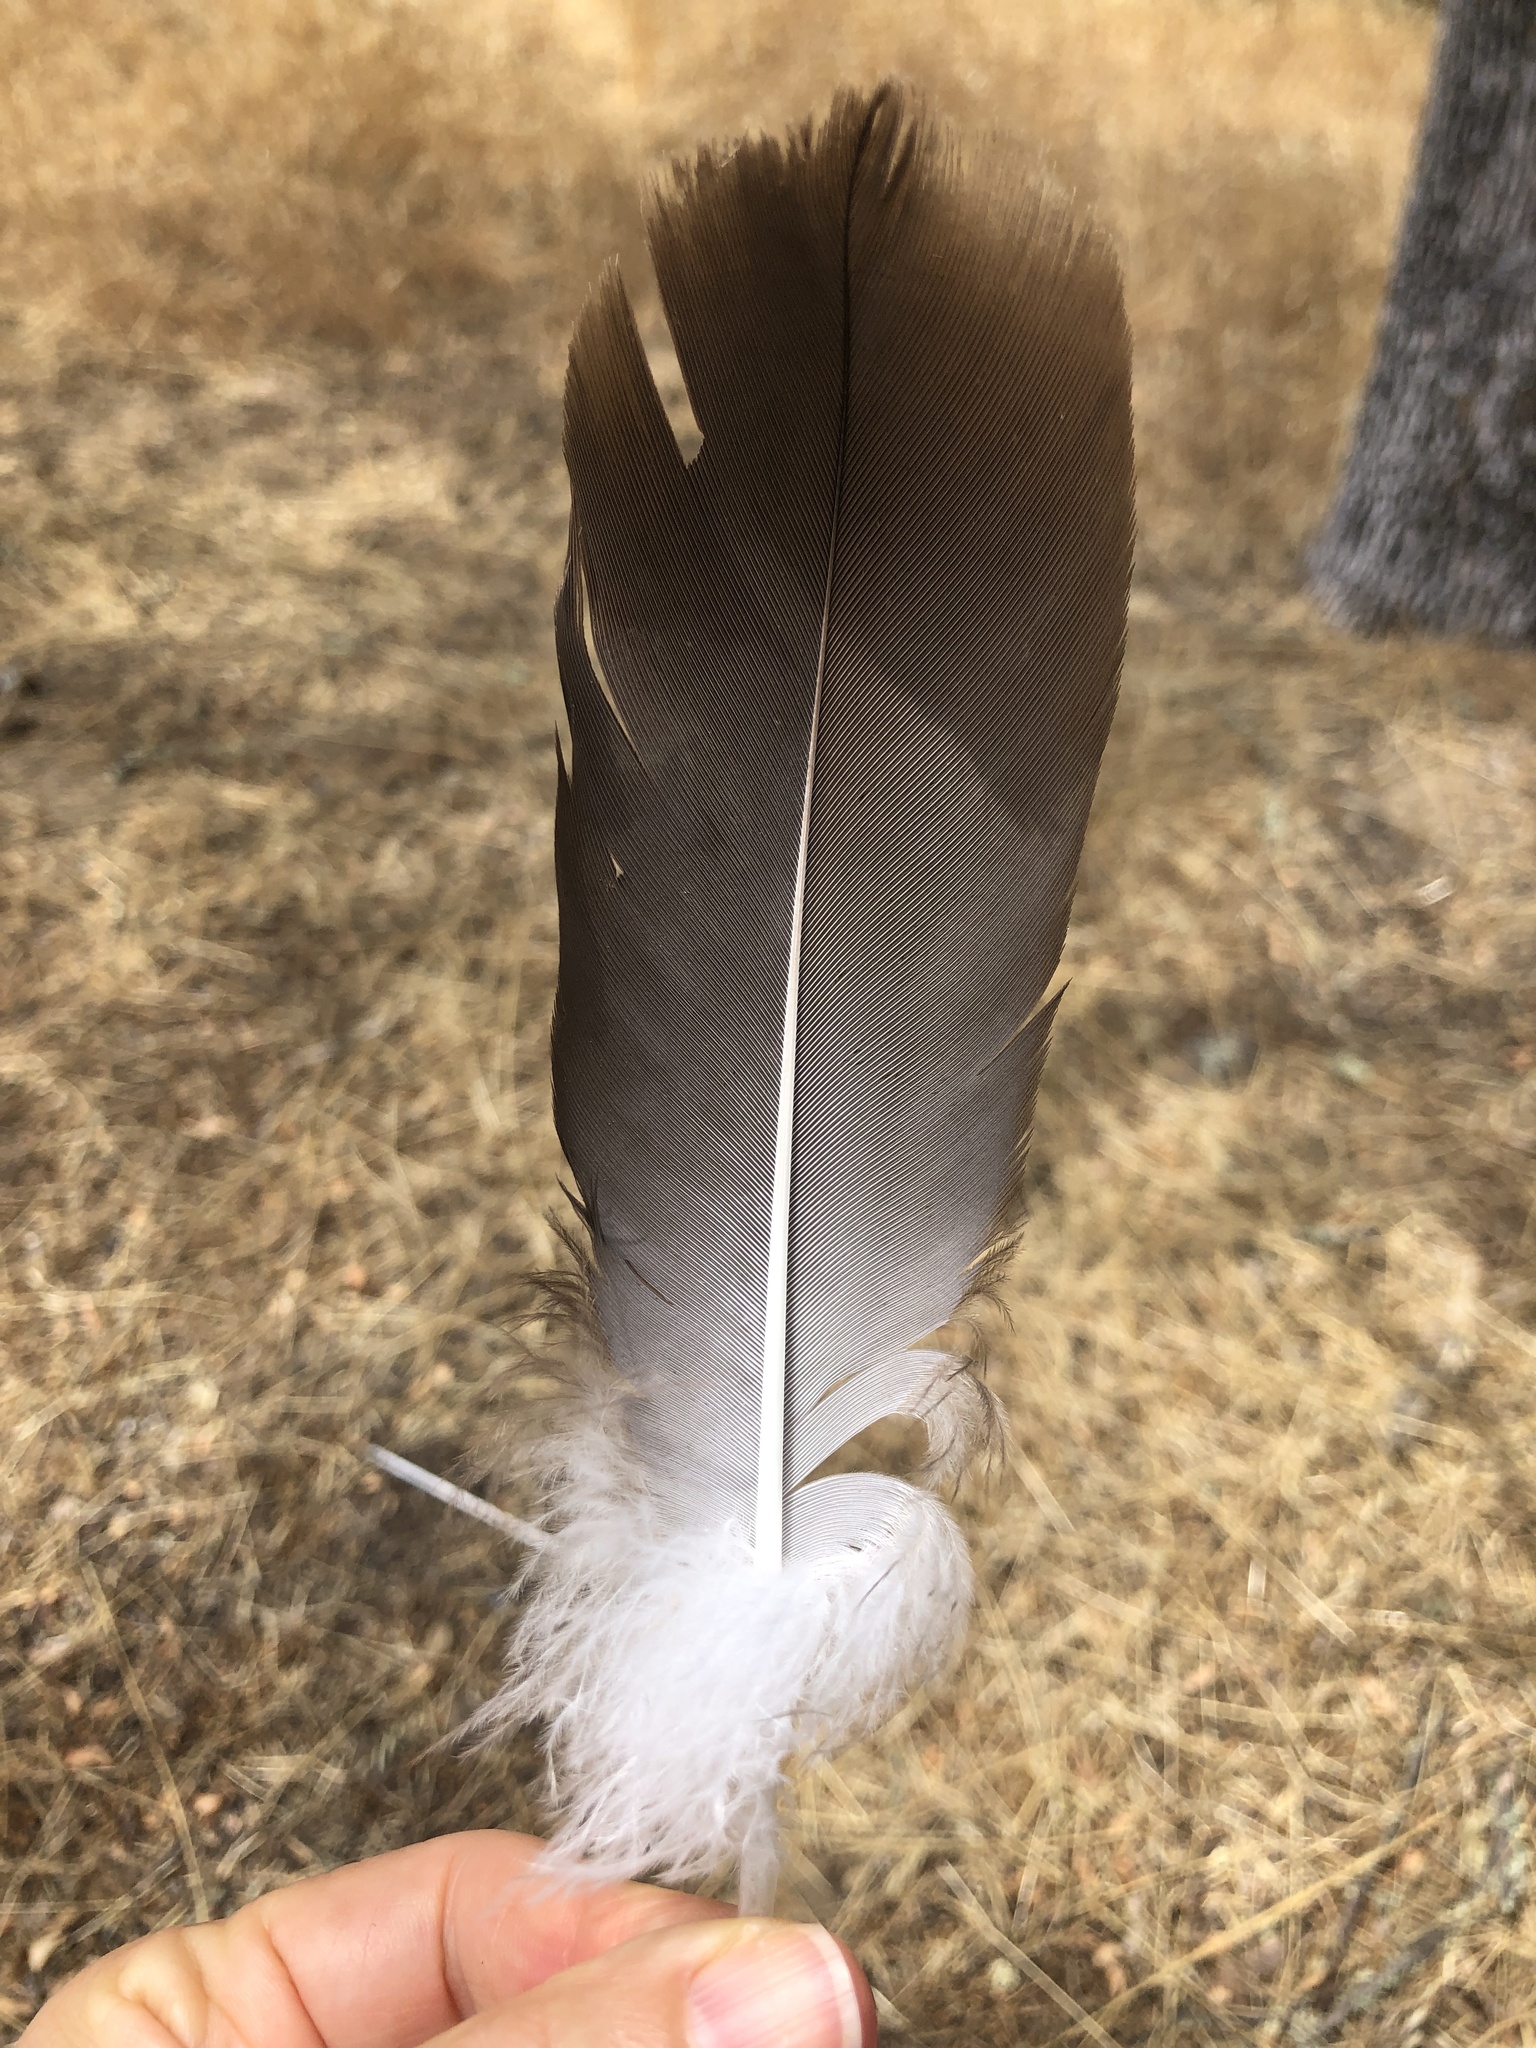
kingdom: Animalia
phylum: Chordata
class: Aves
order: Accipitriformes
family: Cathartidae
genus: Cathartes
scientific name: Cathartes aura
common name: Turkey vulture
